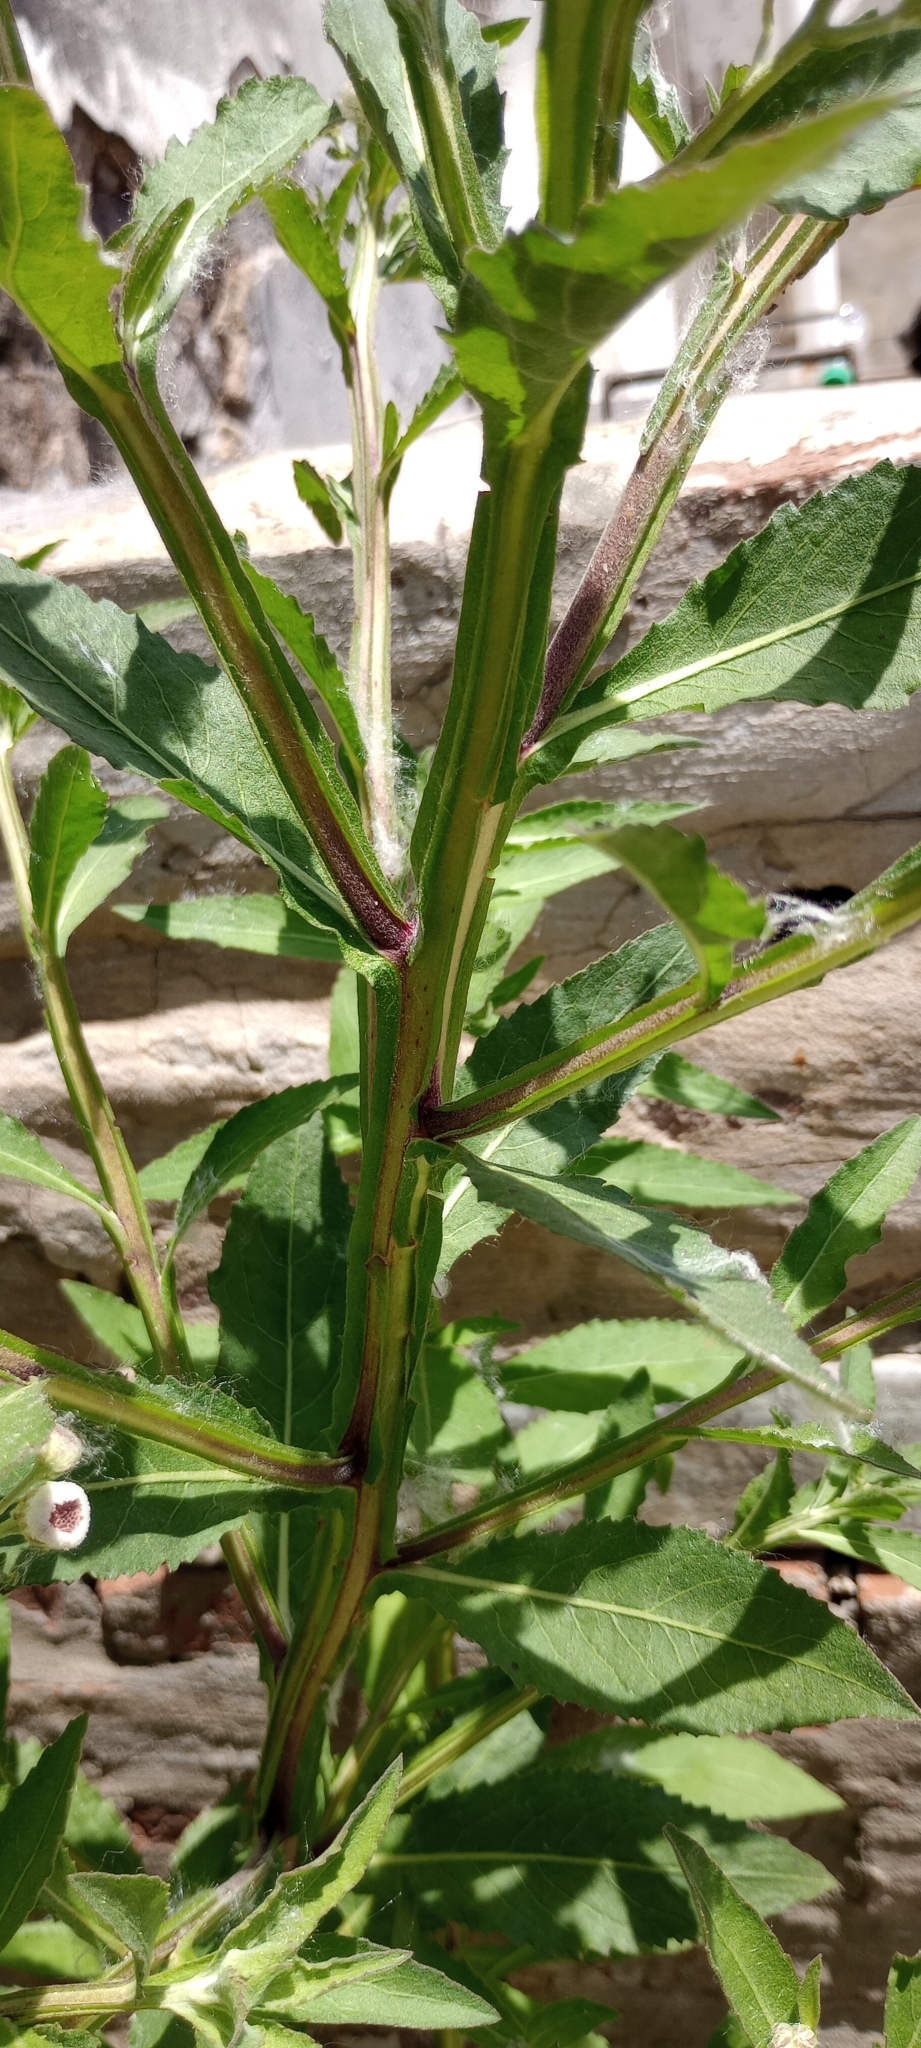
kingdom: Plantae
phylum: Tracheophyta
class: Magnoliopsida
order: Asterales
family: Asteraceae
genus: Pluchea
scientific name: Pluchea sagittalis
